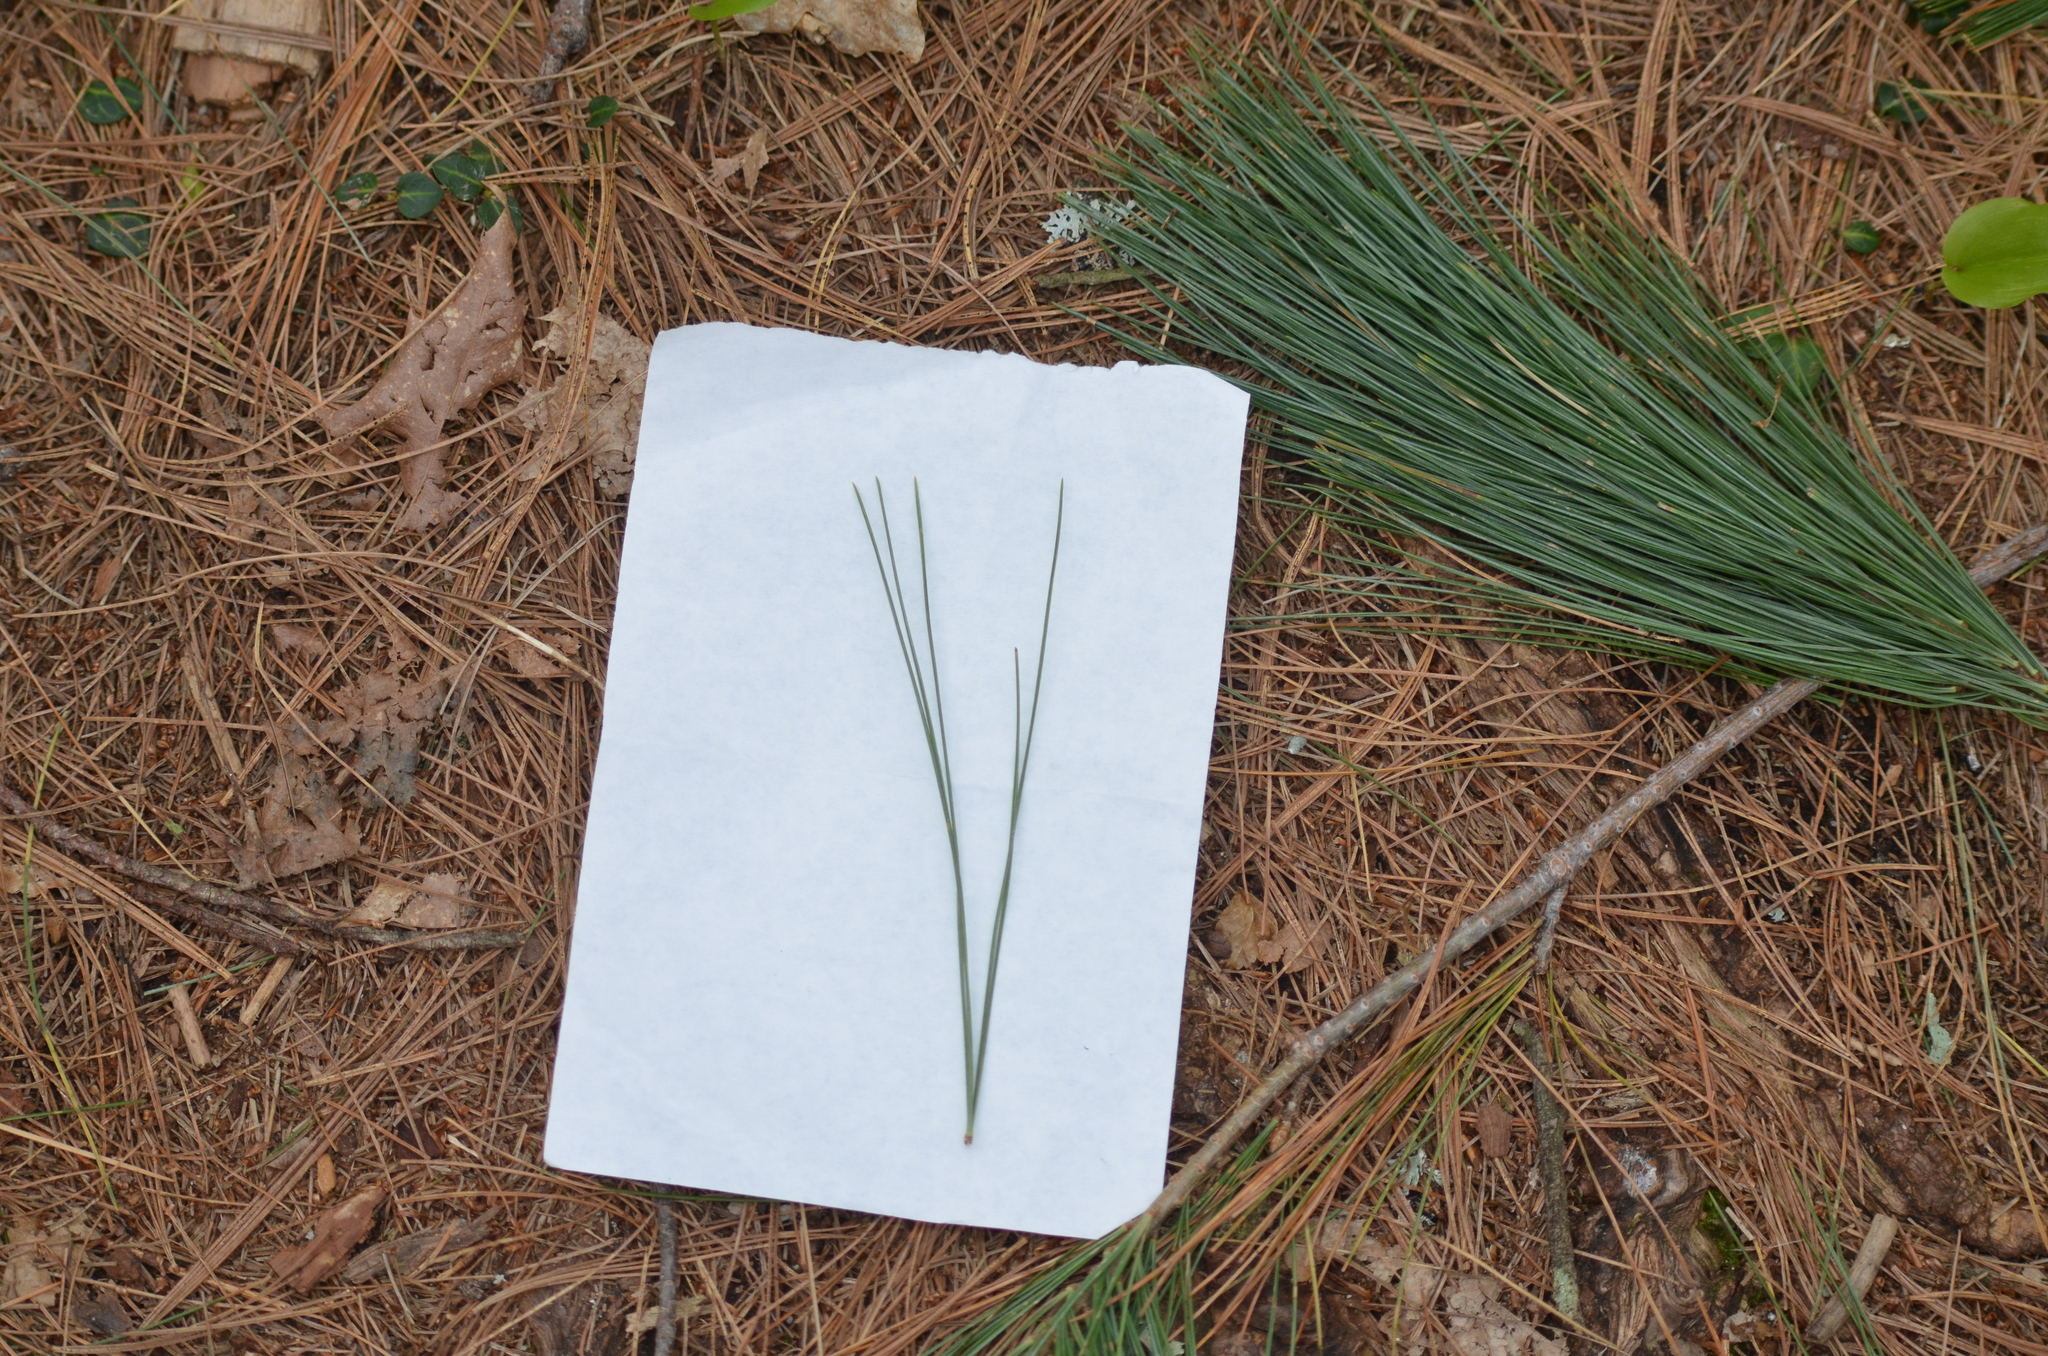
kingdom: Plantae
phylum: Tracheophyta
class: Pinopsida
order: Pinales
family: Pinaceae
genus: Pinus
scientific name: Pinus strobus
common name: Weymouth pine
